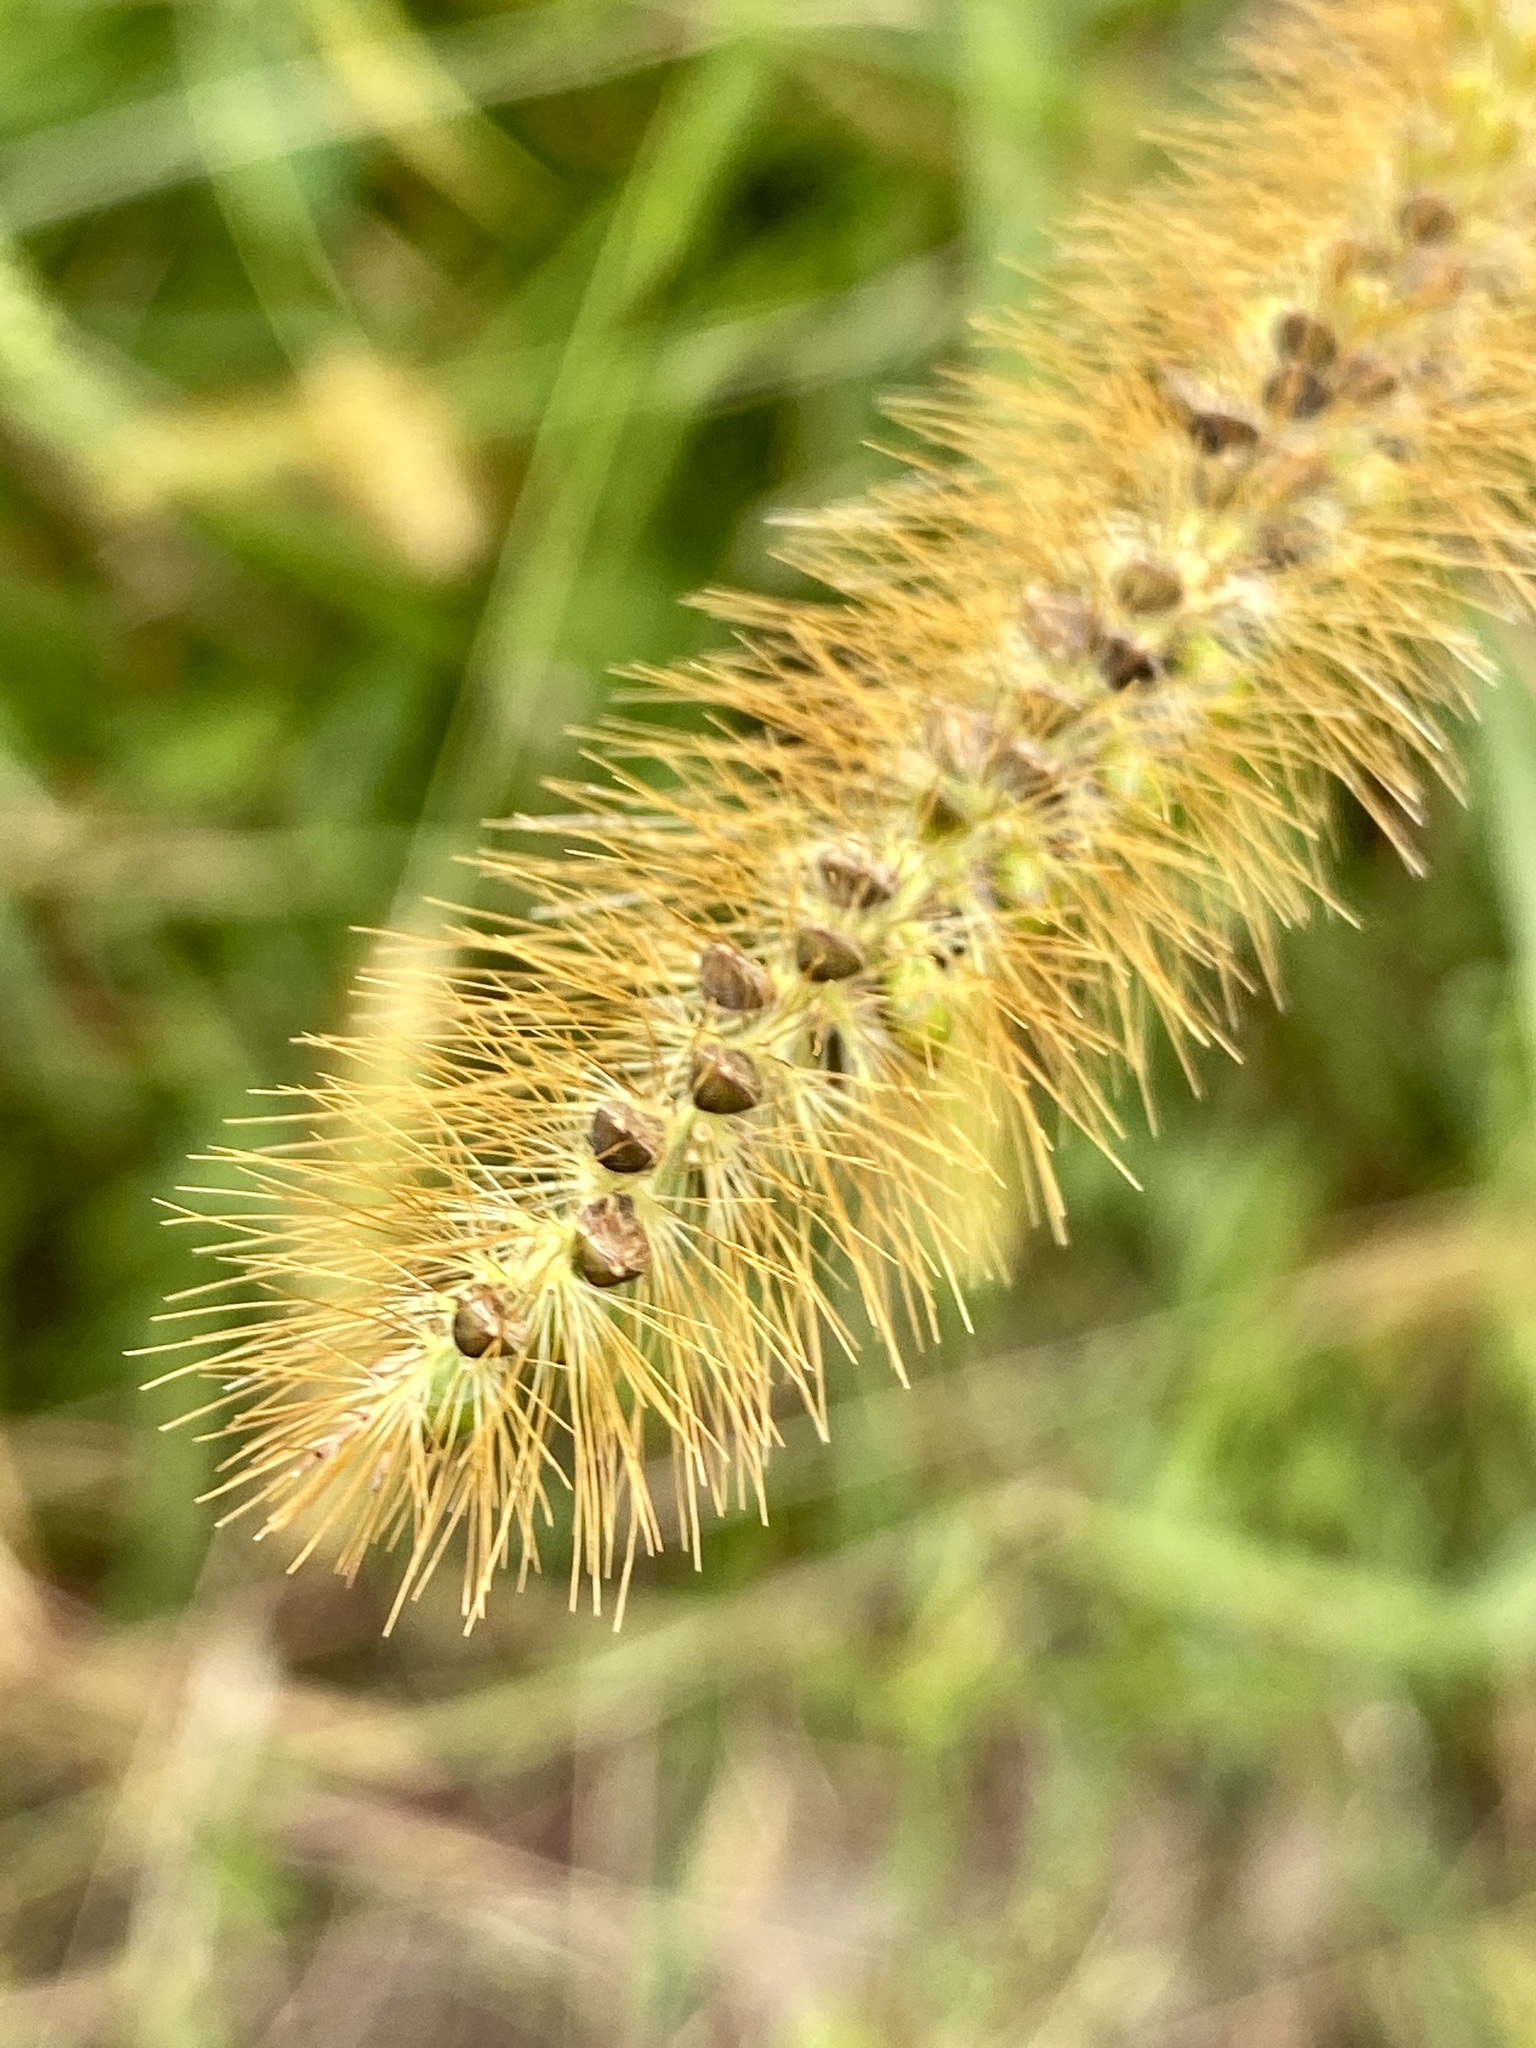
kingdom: Plantae
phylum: Tracheophyta
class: Liliopsida
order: Poales
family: Poaceae
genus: Setaria
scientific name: Setaria pumila
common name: Yellow bristle-grass
